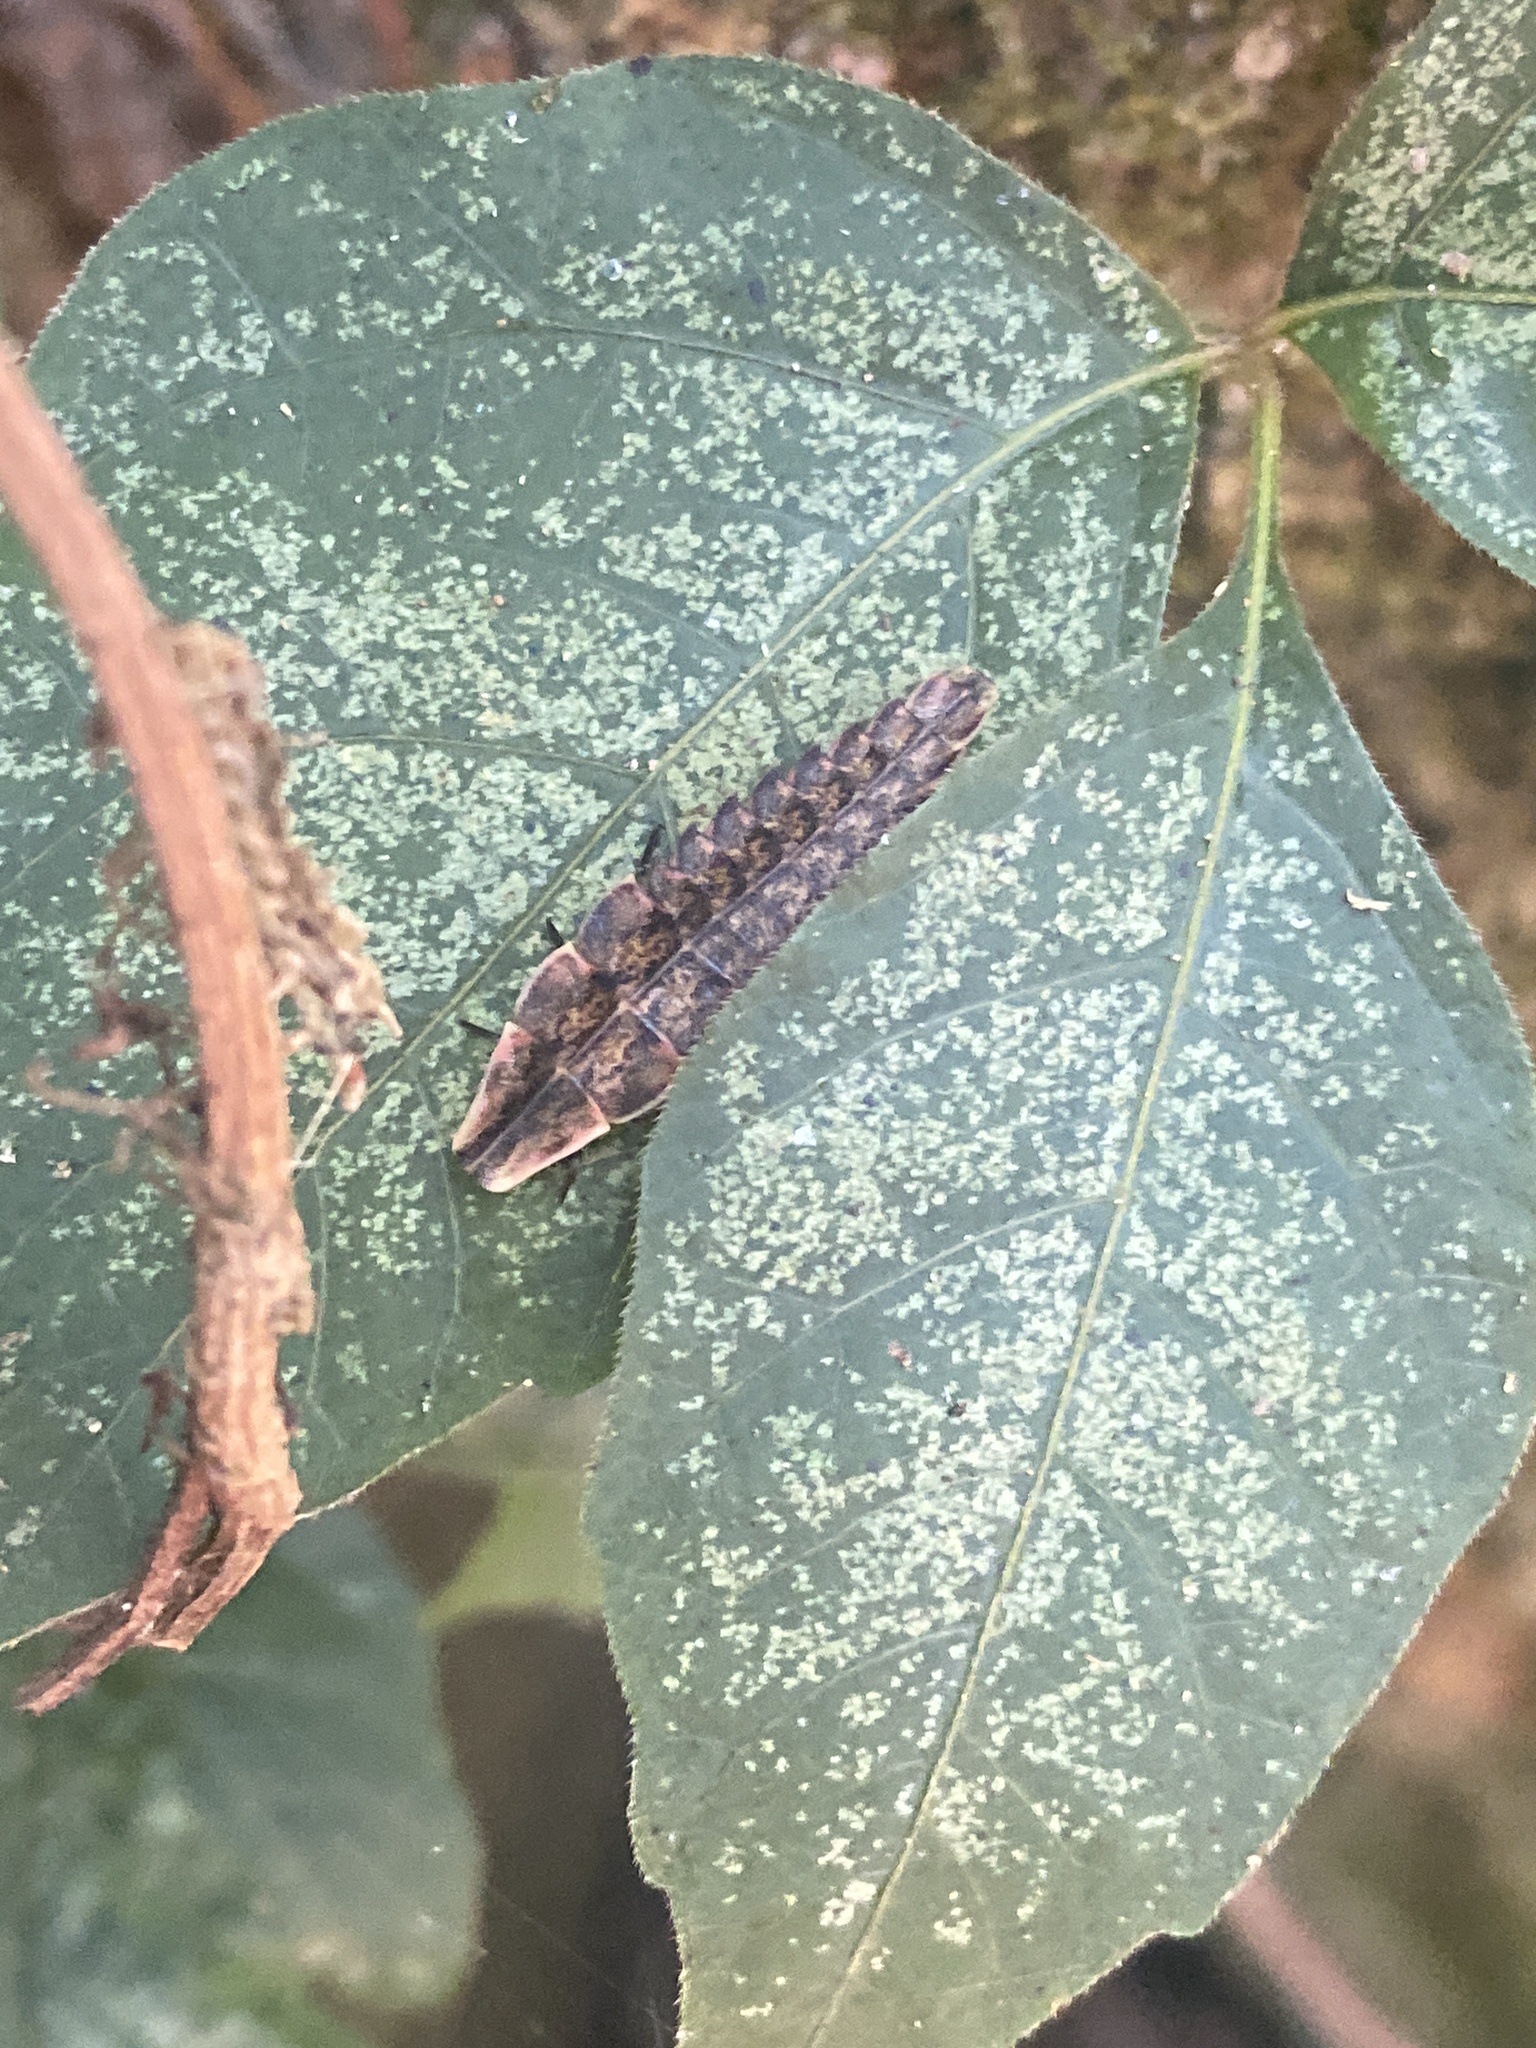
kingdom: Animalia
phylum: Arthropoda
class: Insecta
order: Coleoptera
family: Lampyridae
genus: Pyractomena
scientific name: Pyractomena borealis
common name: Northern firefly
